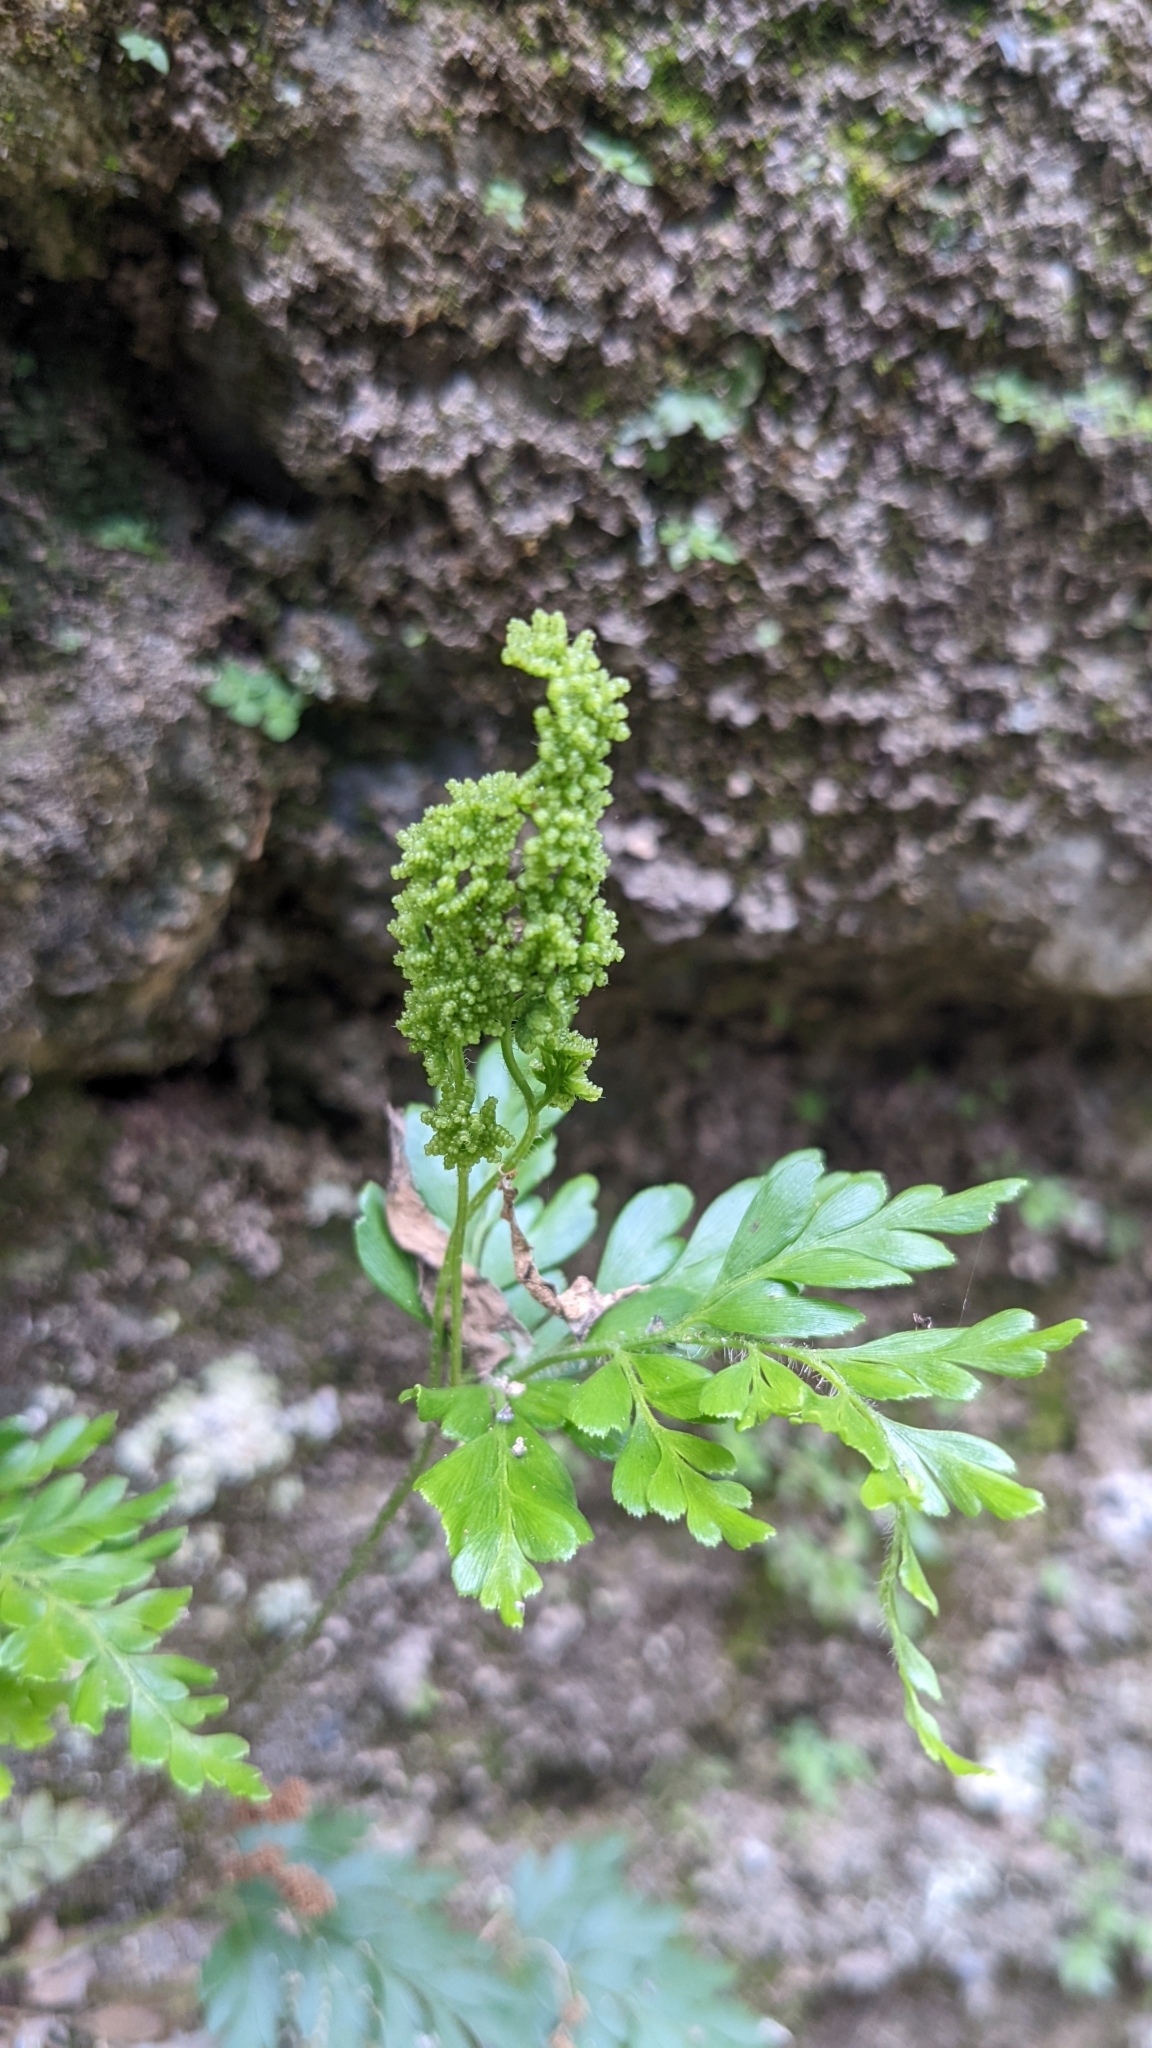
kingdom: Plantae
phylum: Tracheophyta
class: Polypodiopsida
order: Schizaeales
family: Anemiaceae
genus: Anemia
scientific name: Anemia adiantifolia
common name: Pine fern
